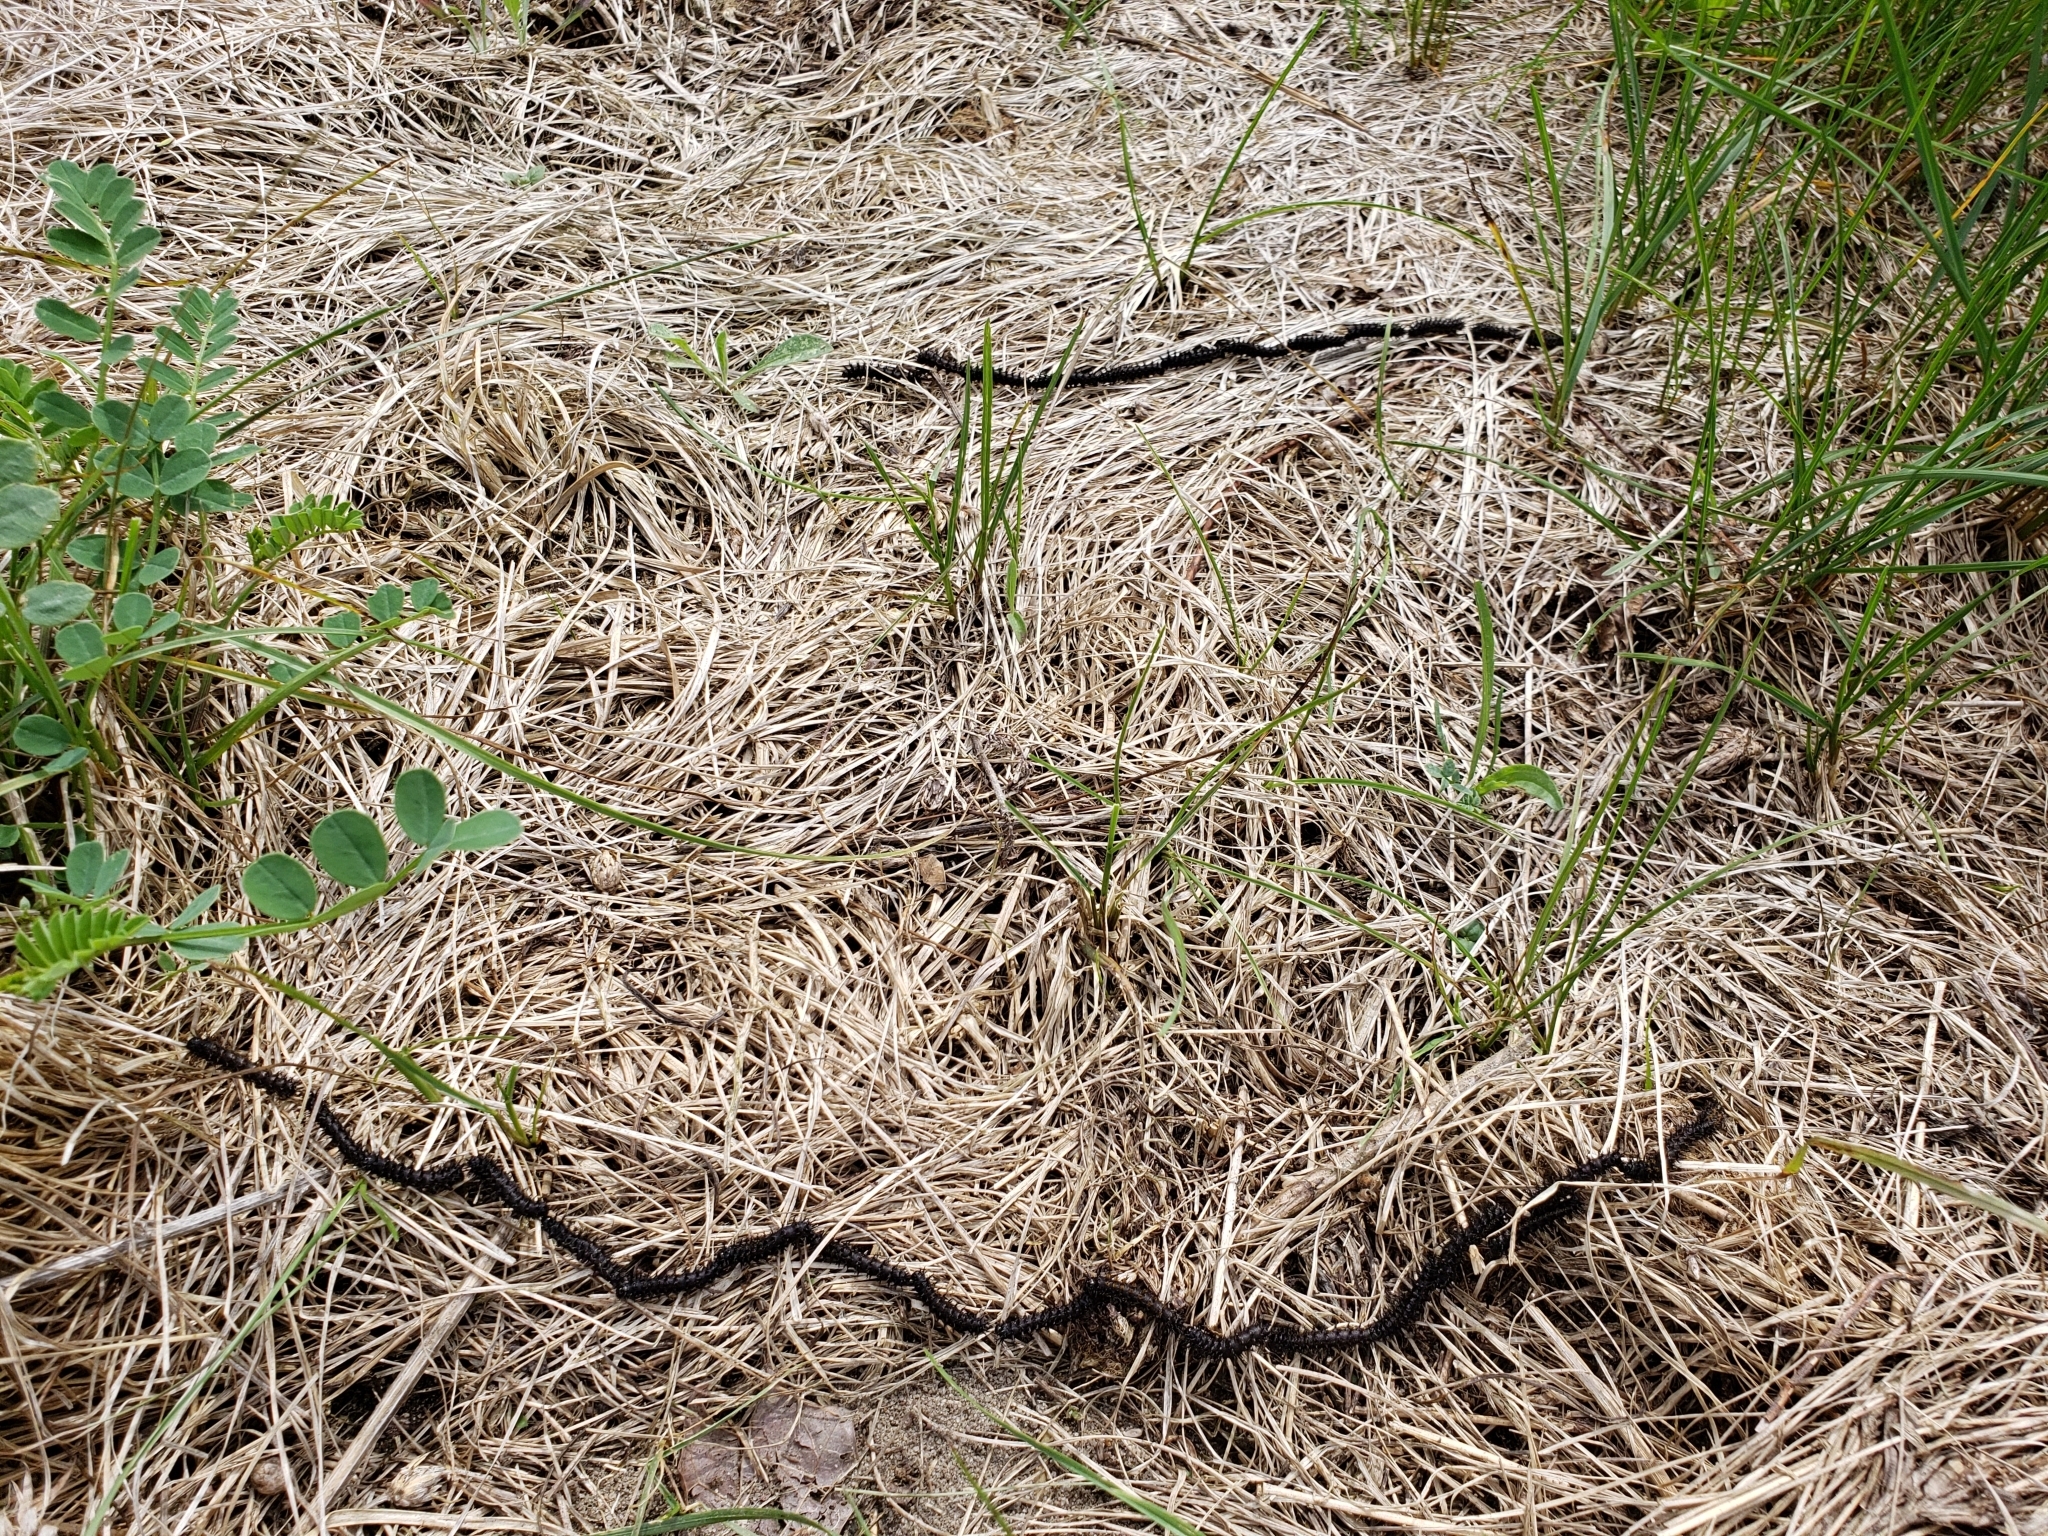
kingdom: Animalia
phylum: Arthropoda
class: Insecta
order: Lepidoptera
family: Saturniidae
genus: Hemileuca
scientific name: Hemileuca maia
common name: Eastern buckmoth
